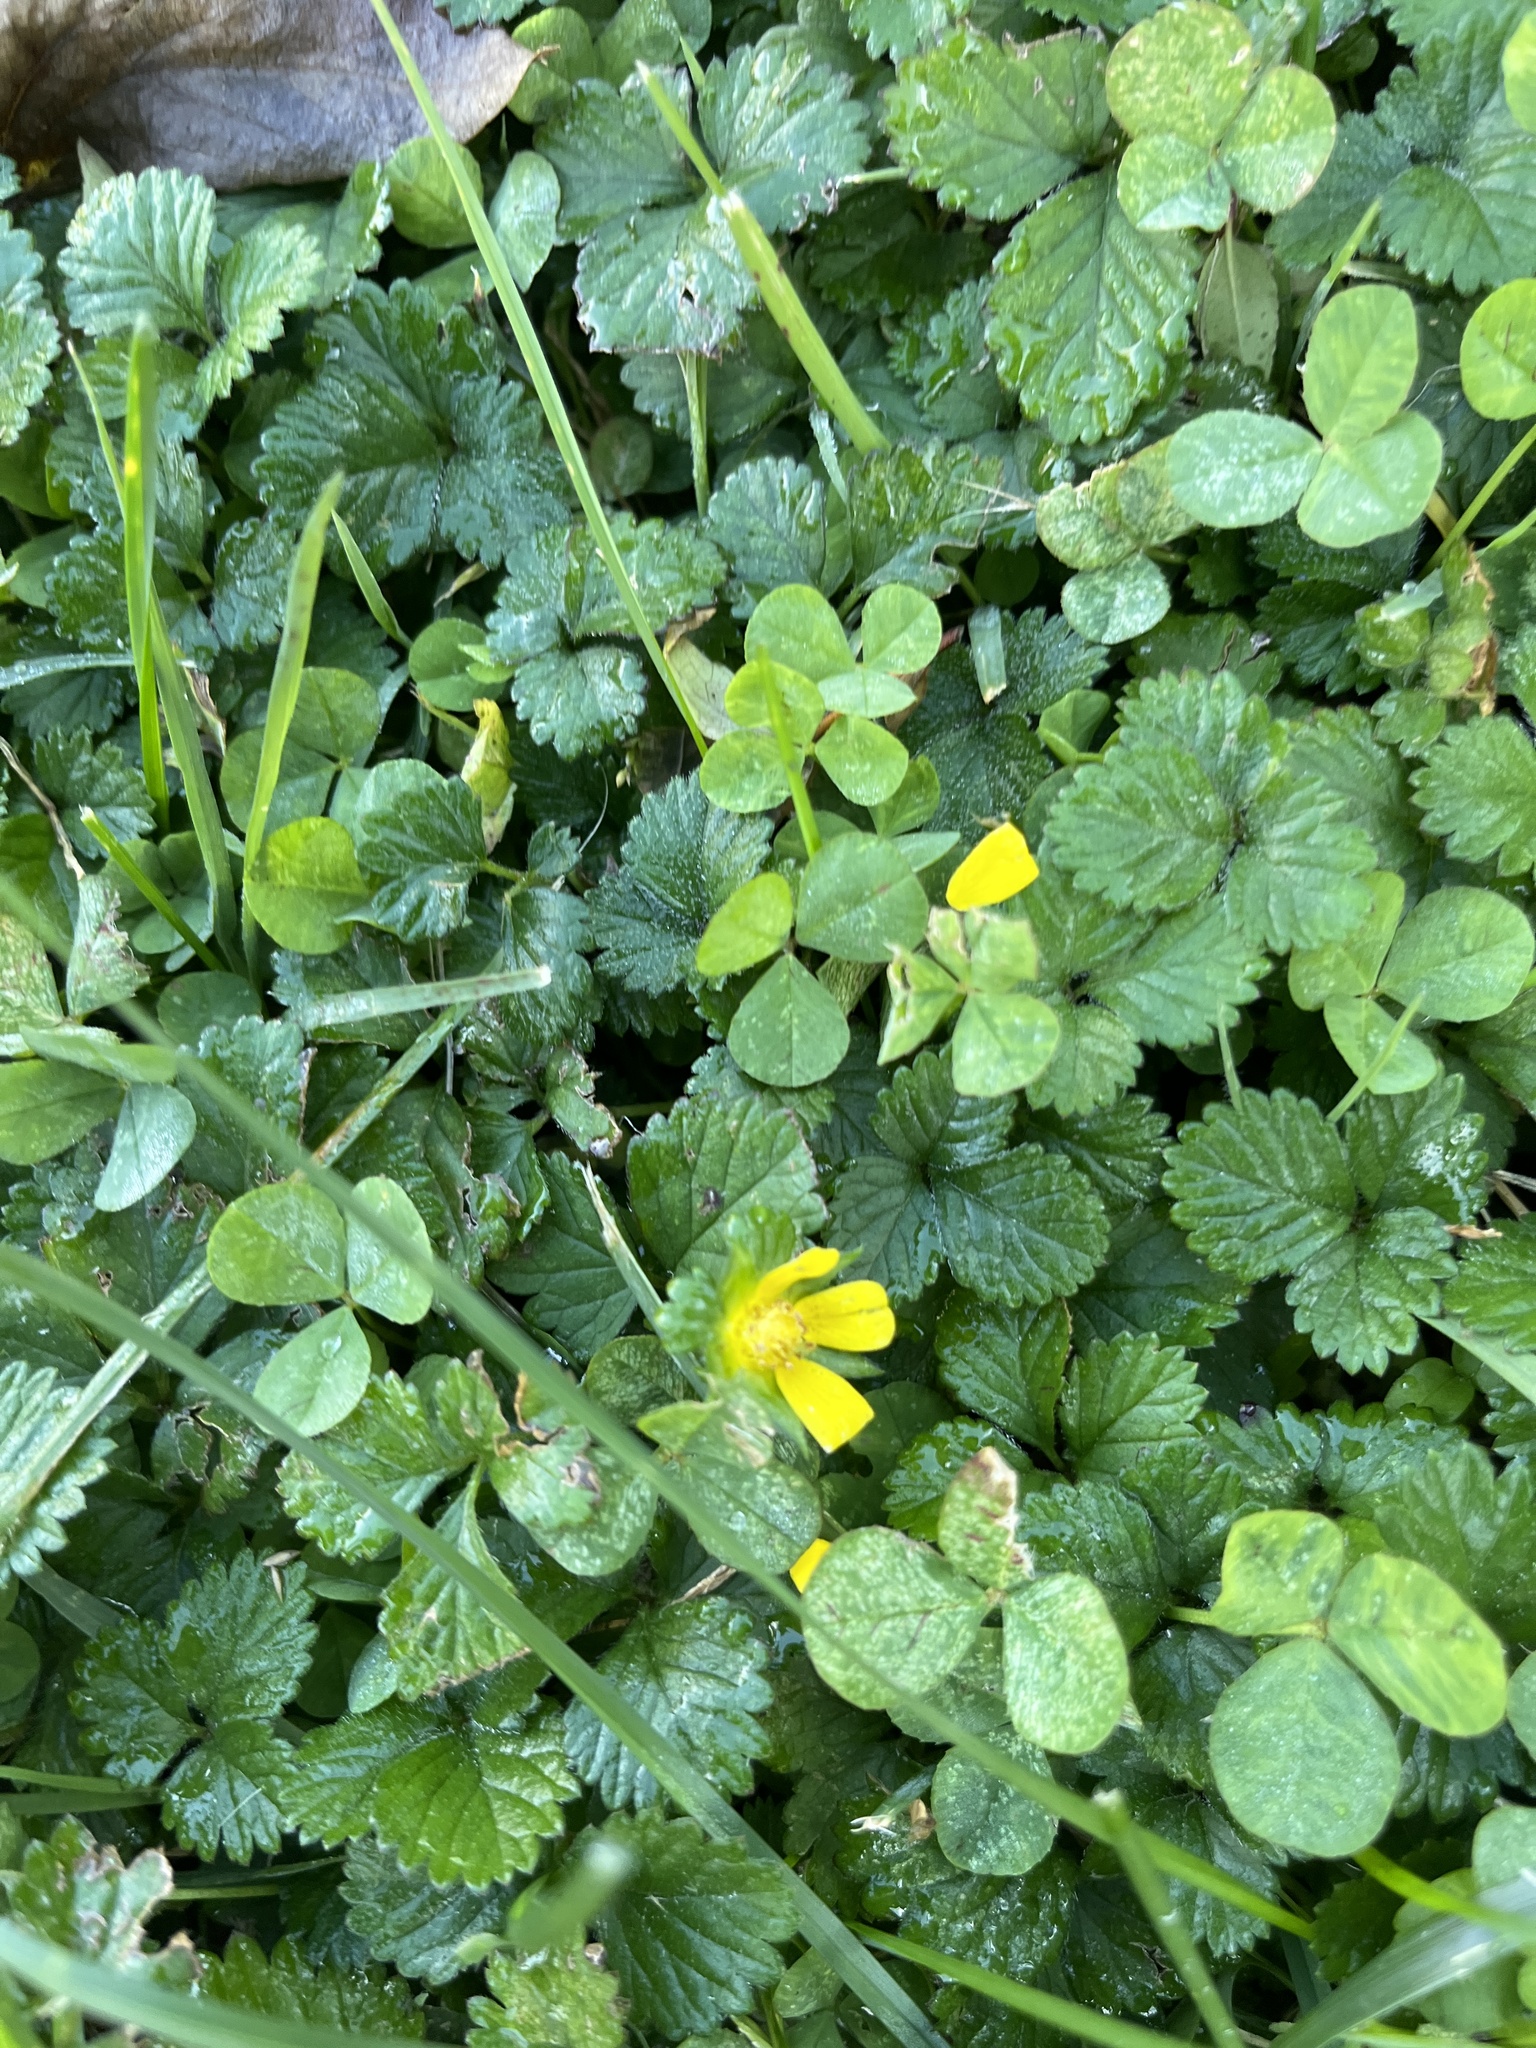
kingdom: Plantae
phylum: Tracheophyta
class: Magnoliopsida
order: Rosales
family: Rosaceae
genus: Potentilla
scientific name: Potentilla indica
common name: Yellow-flowered strawberry
